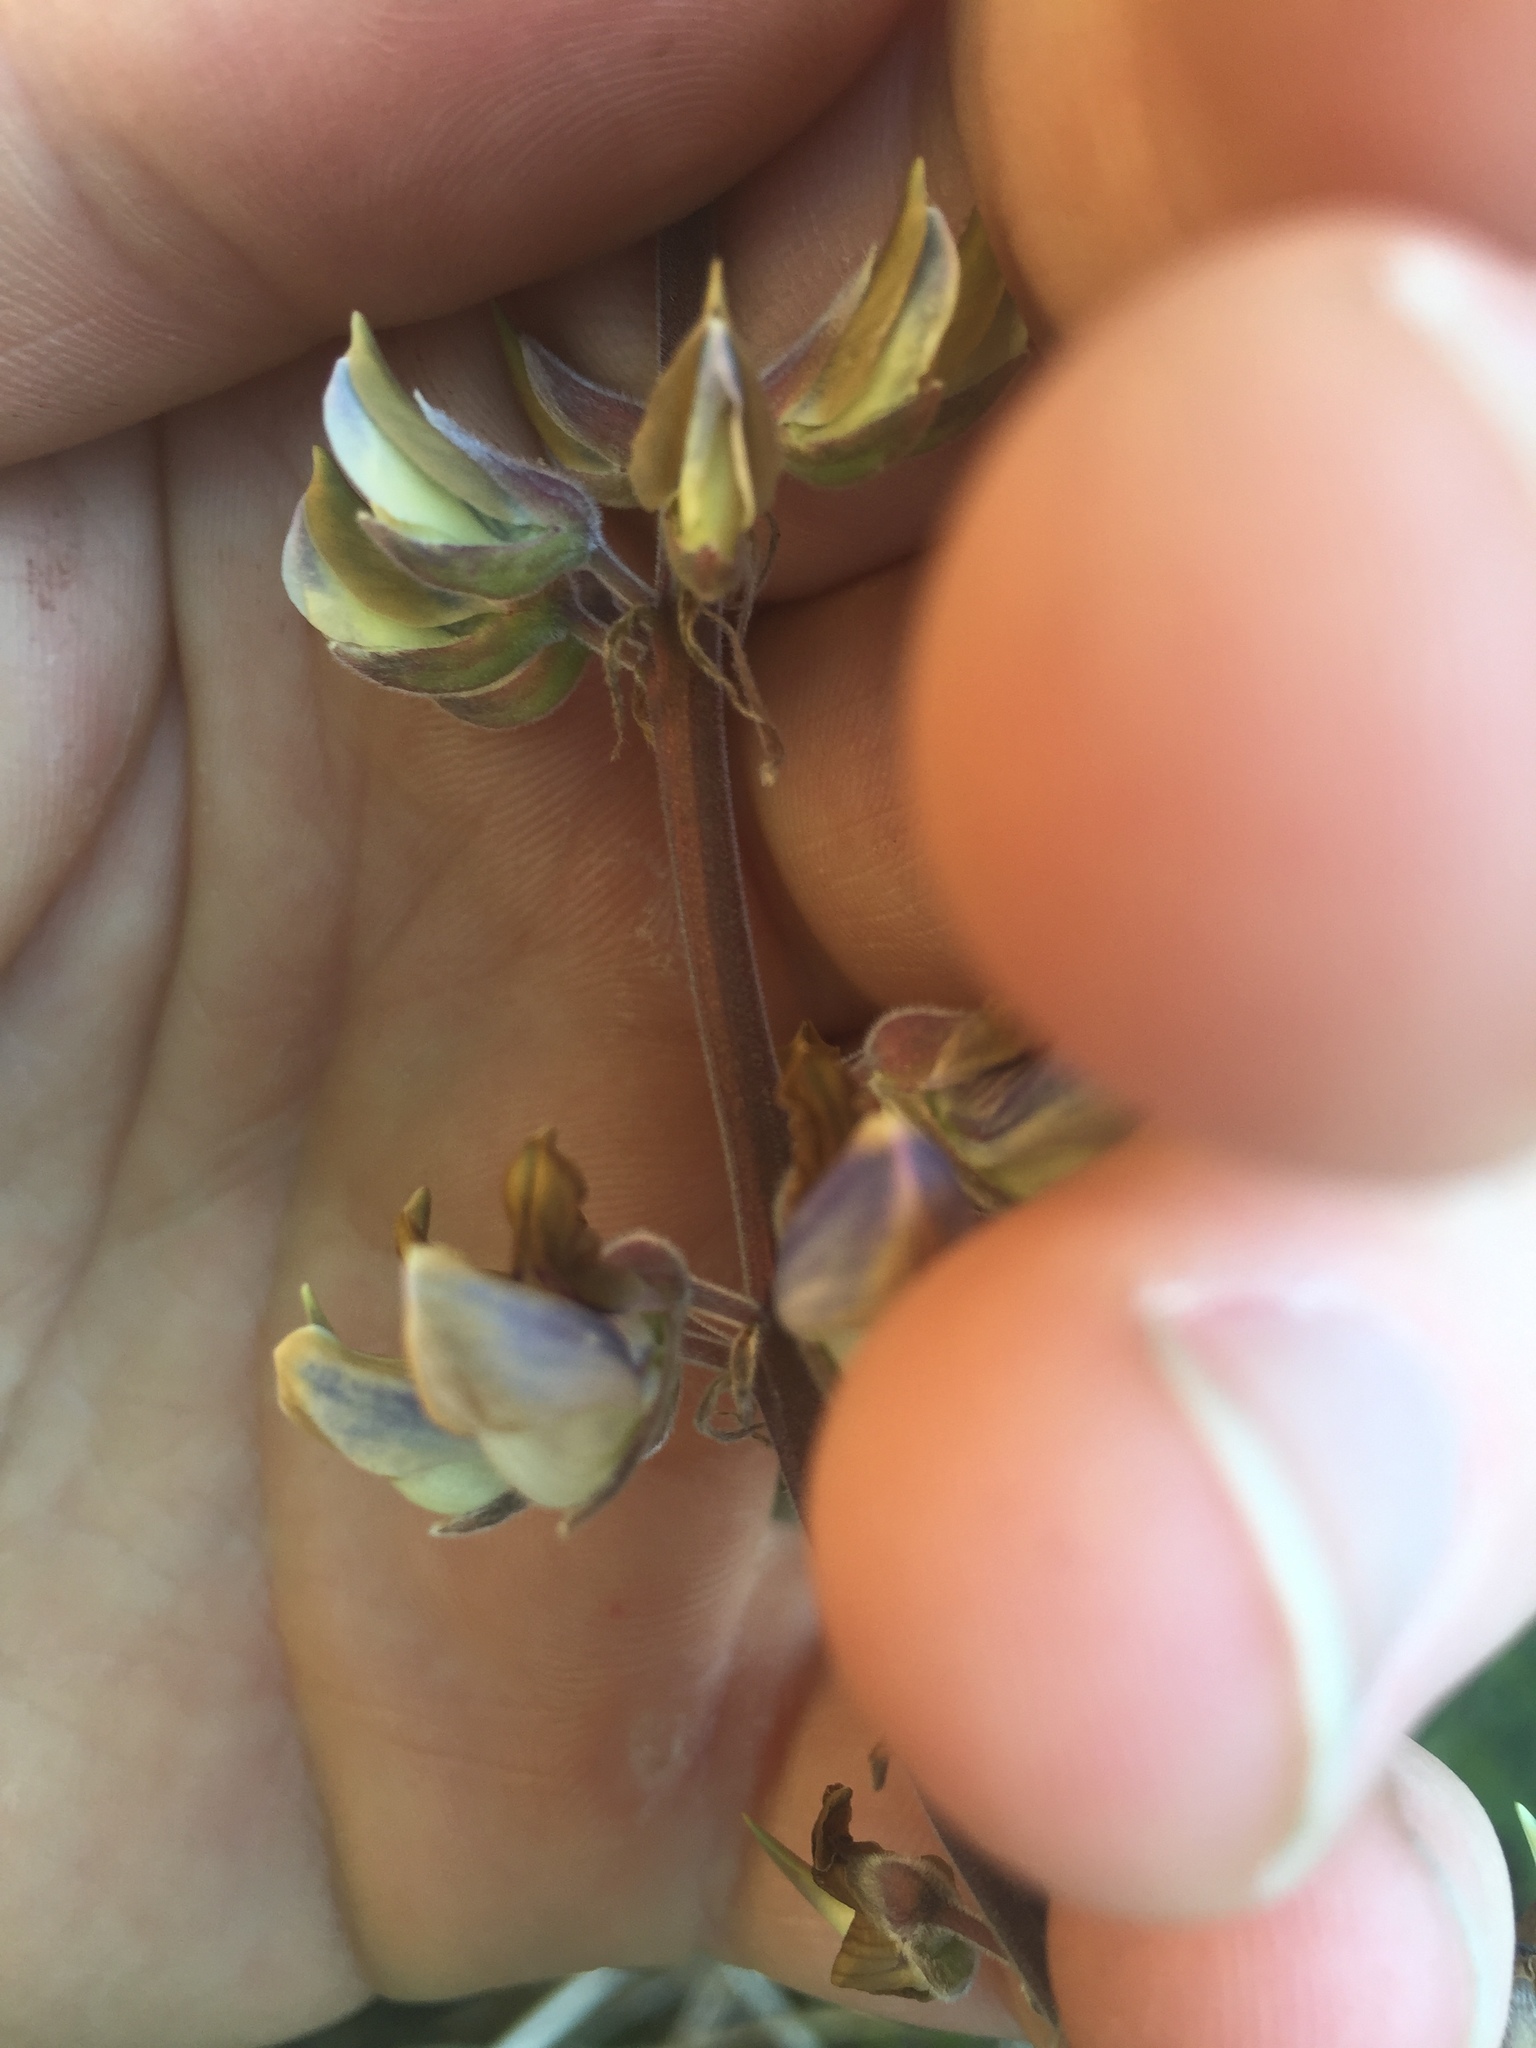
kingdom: Plantae
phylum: Tracheophyta
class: Magnoliopsida
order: Fabales
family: Fabaceae
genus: Lupinus
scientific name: Lupinus oreganus
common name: Kincaid's lupine
